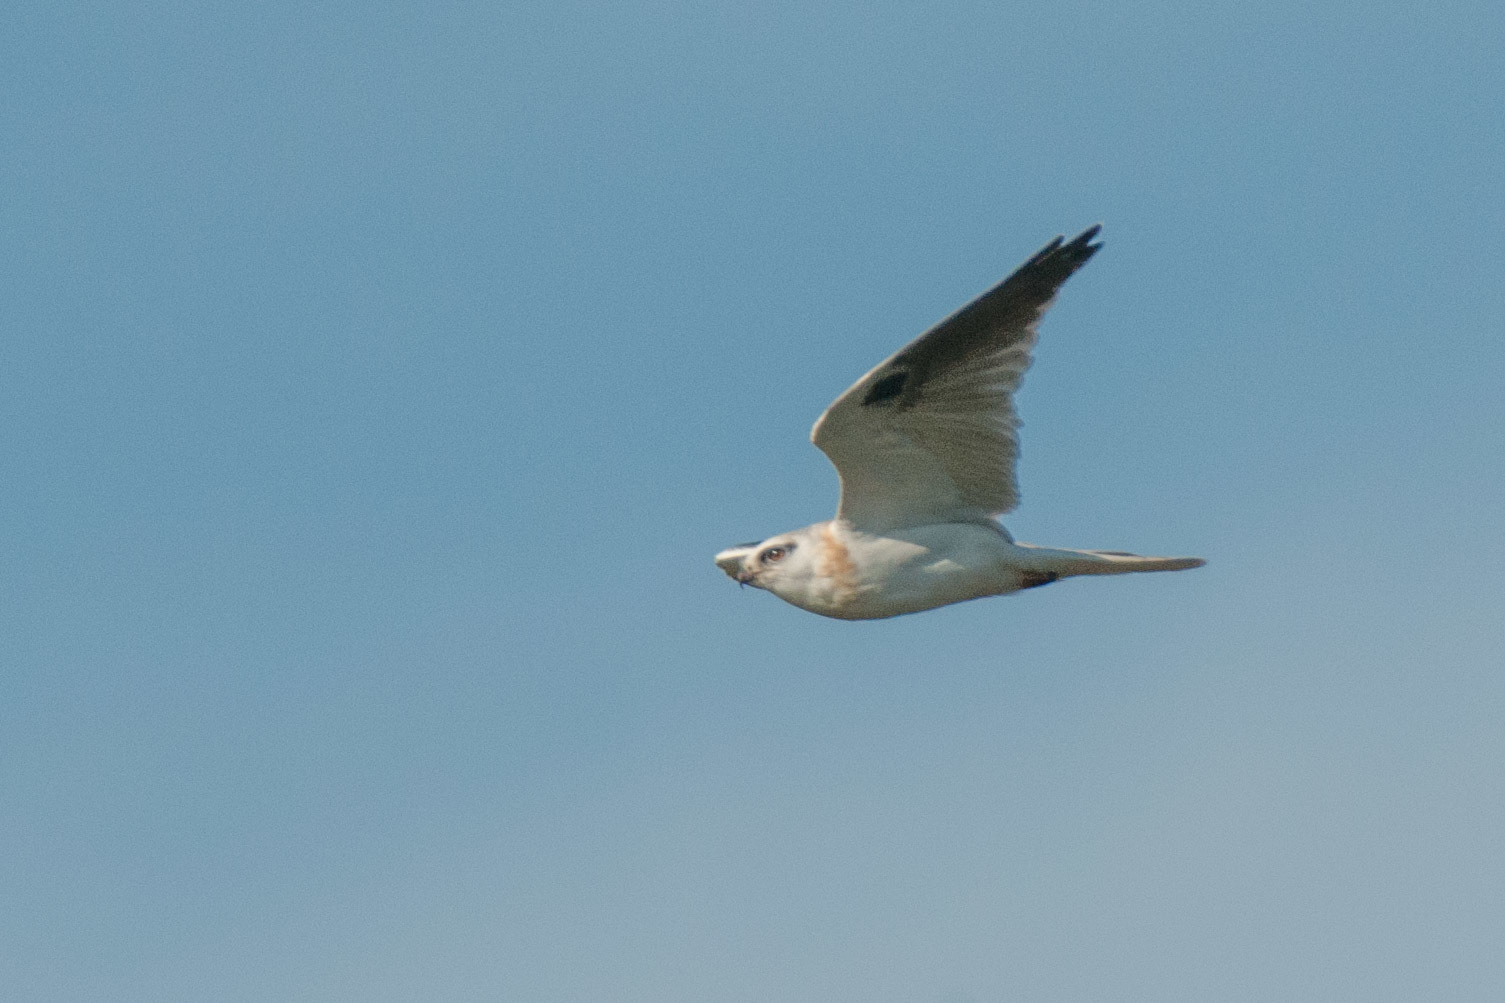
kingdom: Animalia
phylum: Chordata
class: Aves
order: Accipitriformes
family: Accipitridae
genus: Elanus
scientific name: Elanus axillaris
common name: Black-shouldered kite
